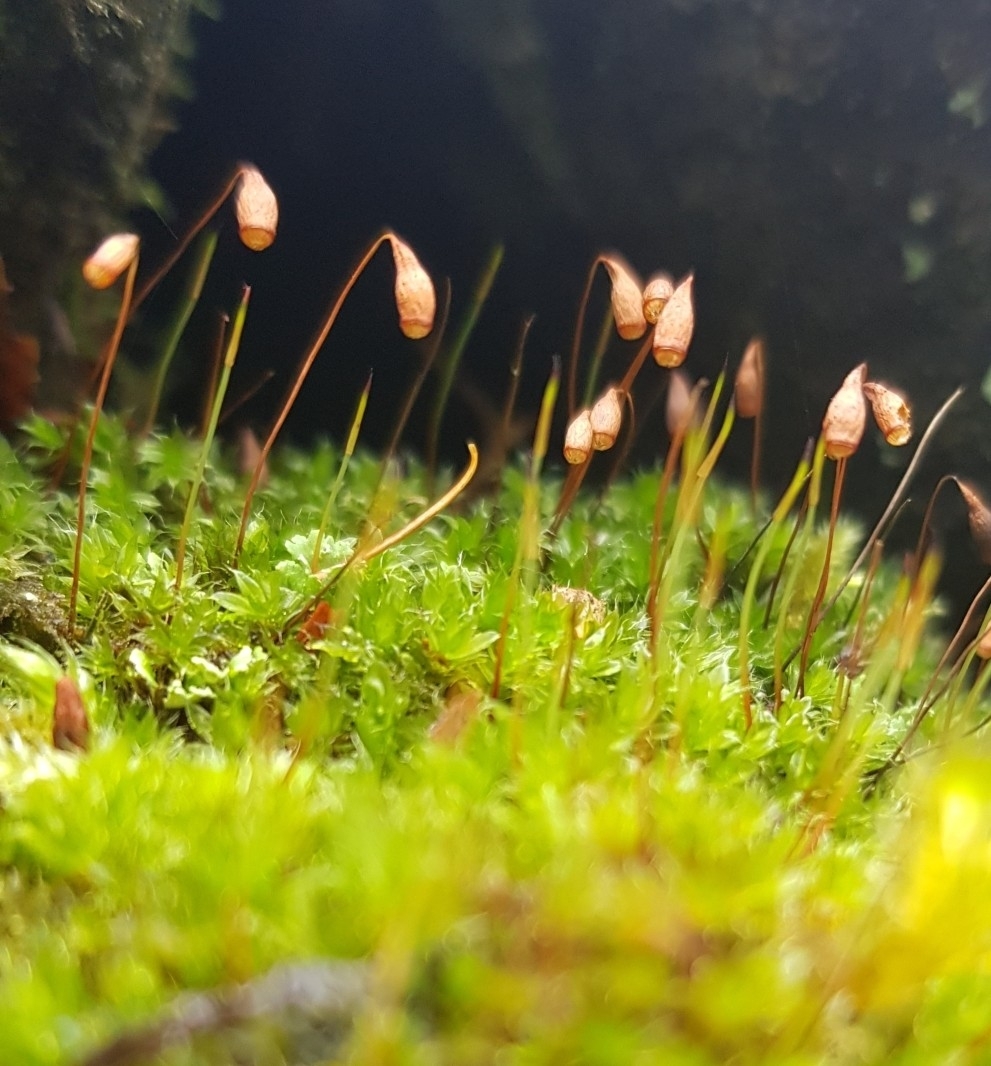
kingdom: Plantae
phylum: Bryophyta
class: Bryopsida
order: Bryales
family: Bryaceae
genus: Rosulabryum
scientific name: Rosulabryum capillare
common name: Capillary thread-moss
